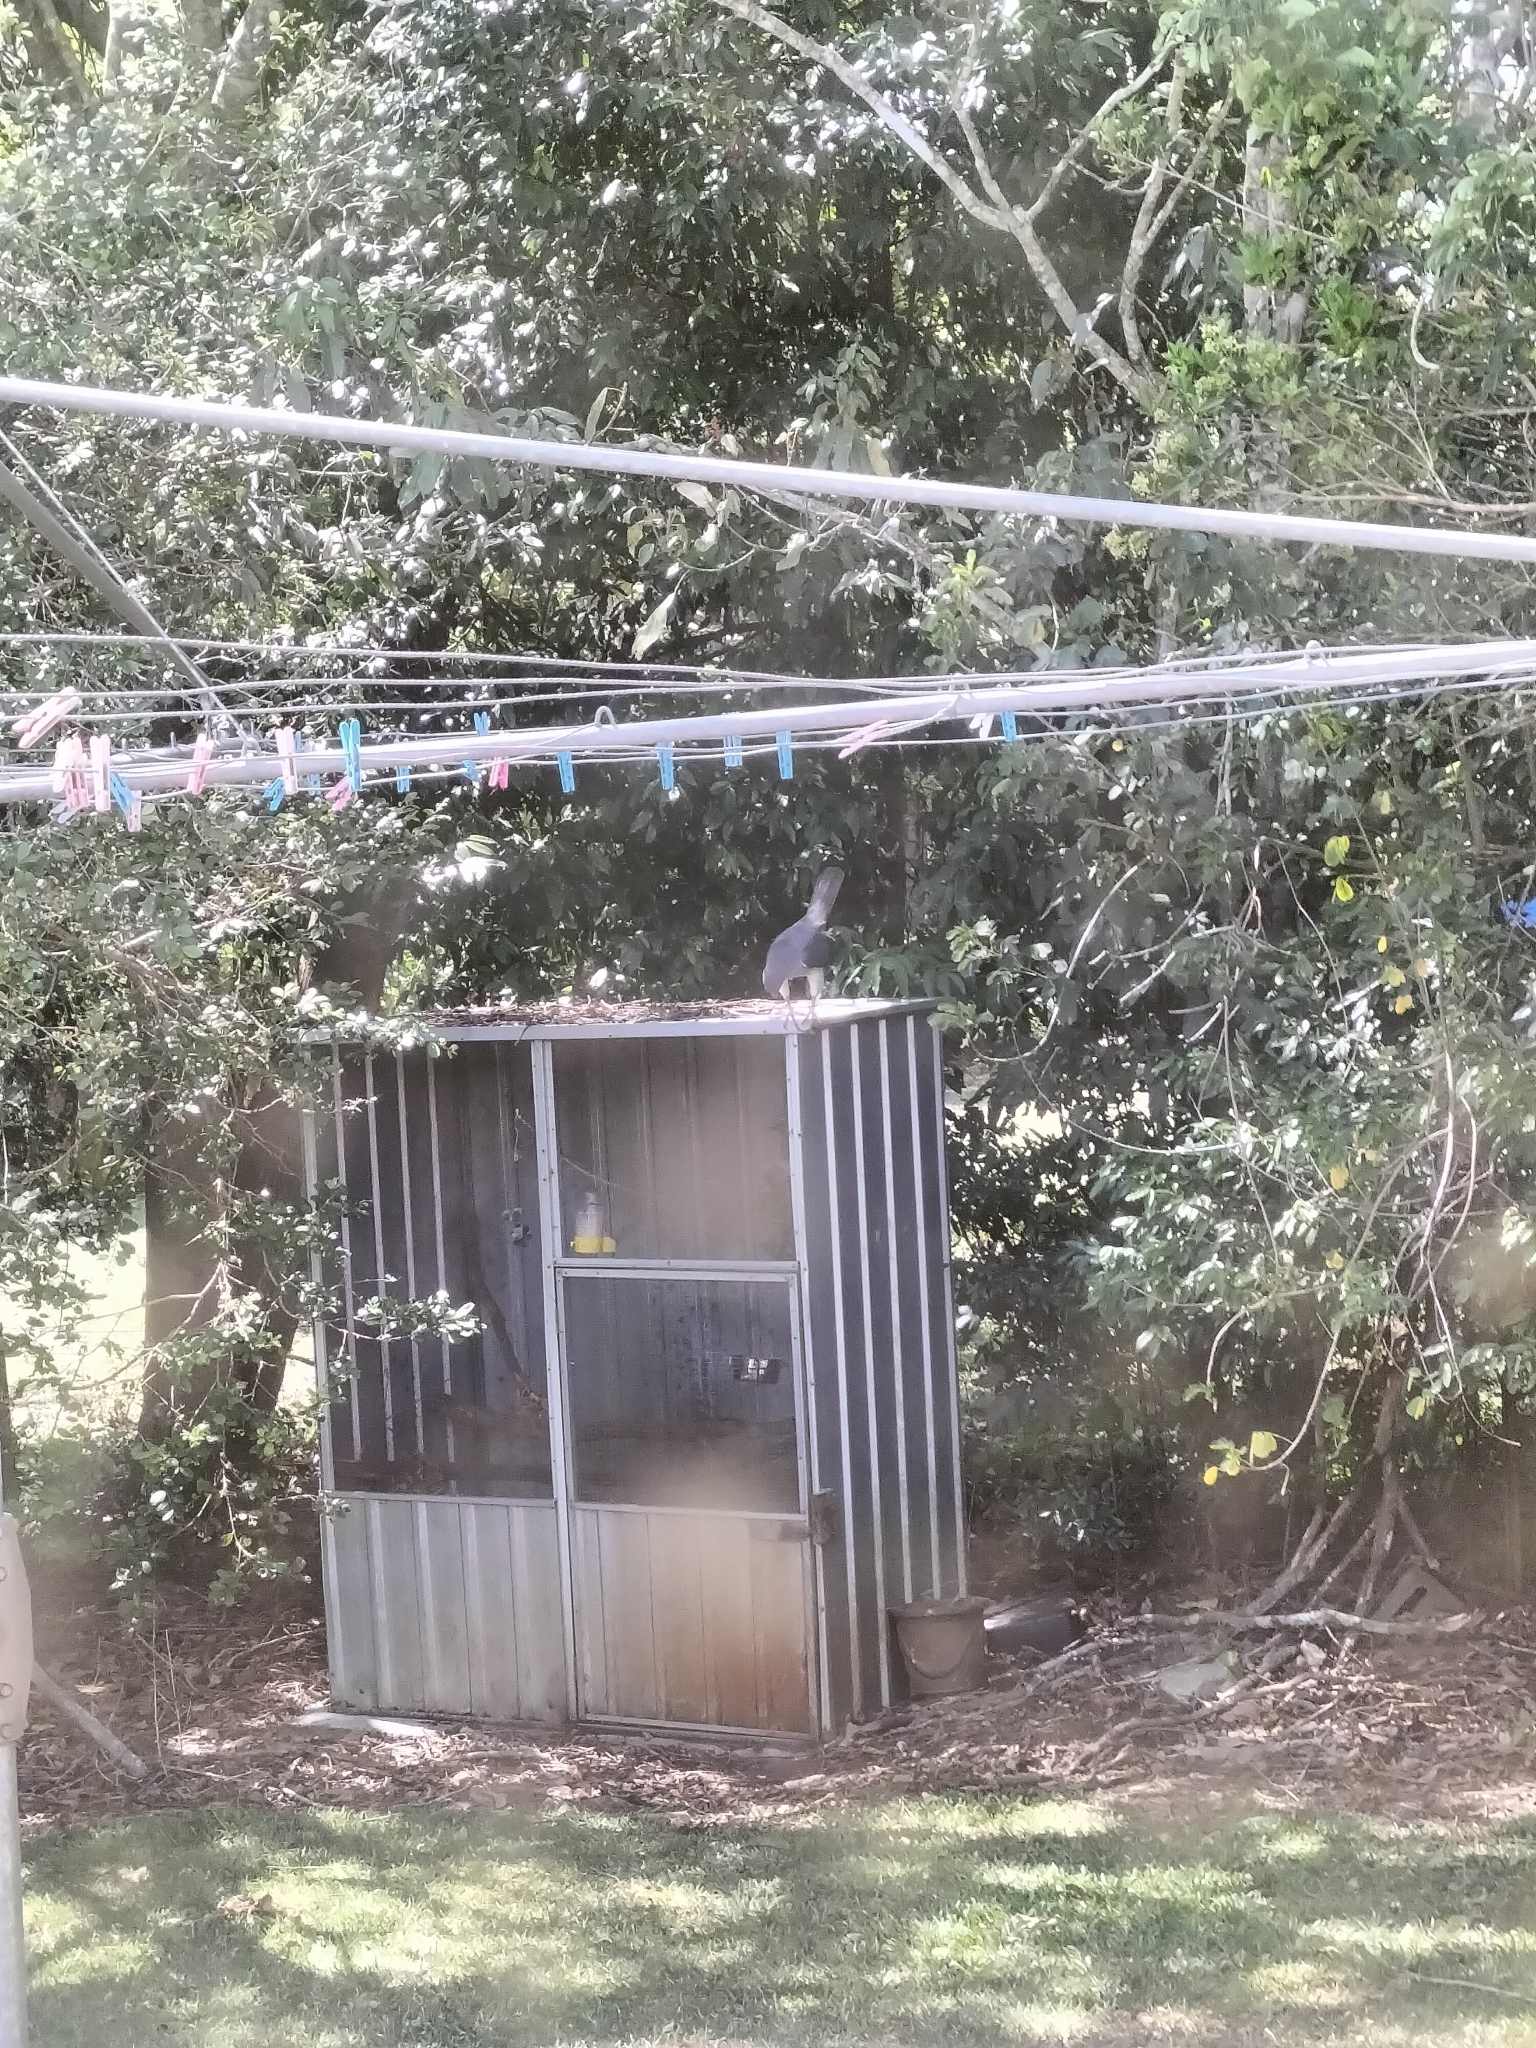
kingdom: Animalia
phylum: Chordata
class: Aves
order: Accipitriformes
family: Accipitridae
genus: Accipiter
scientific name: Accipiter novaehollandiae
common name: Grey goshawk
